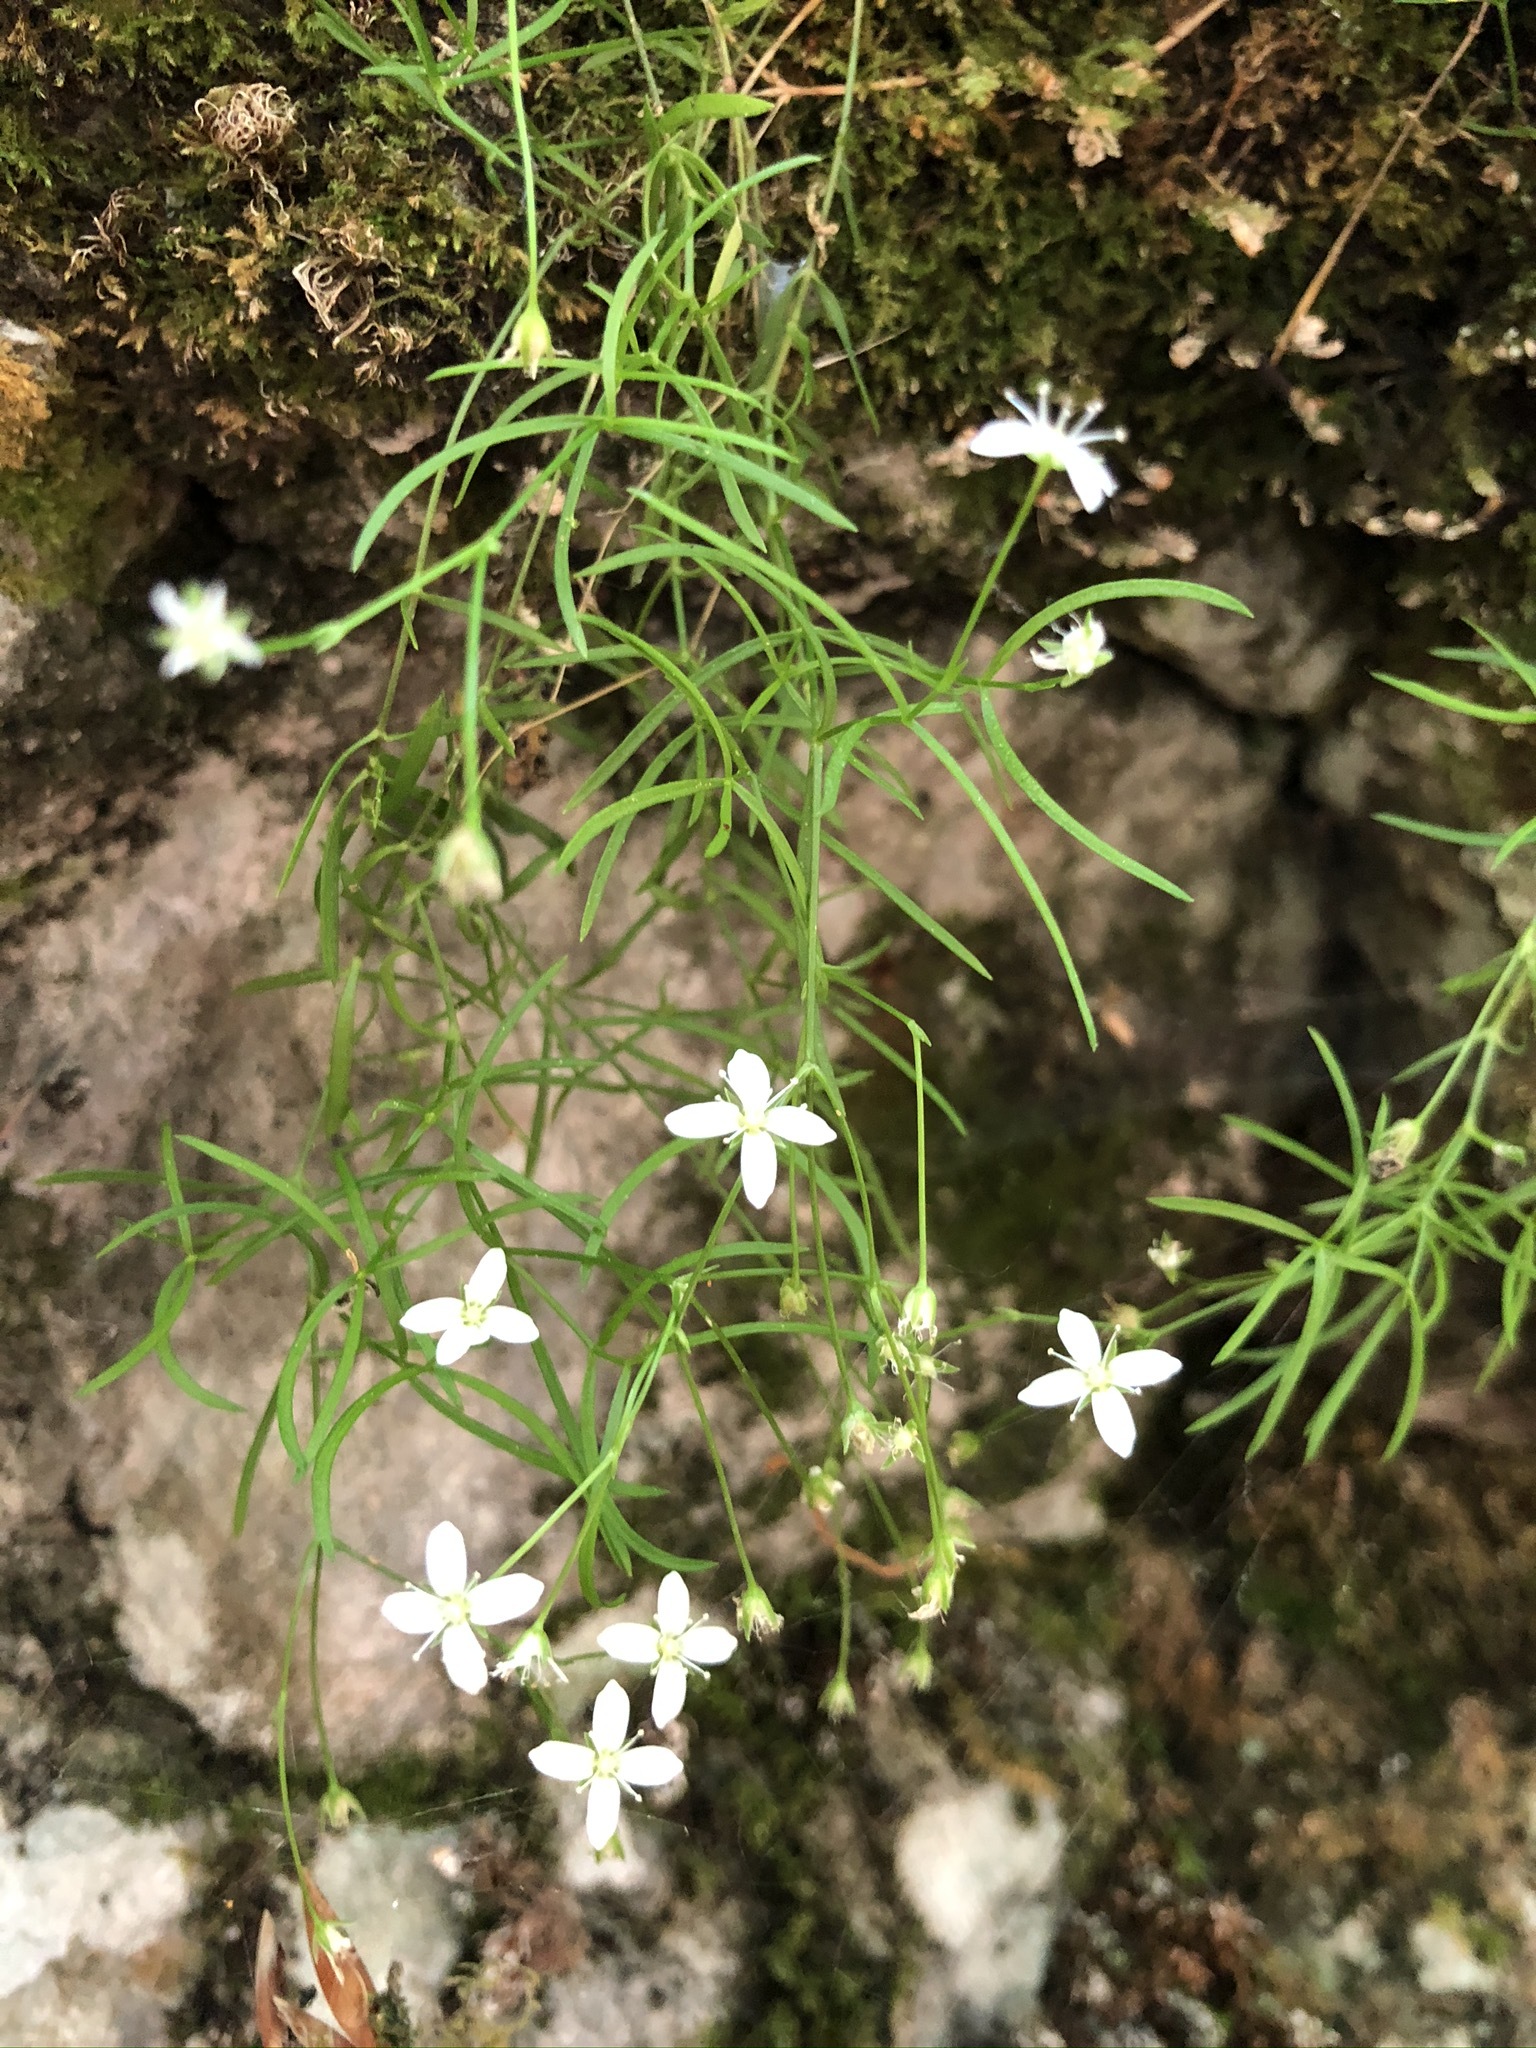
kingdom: Plantae
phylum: Tracheophyta
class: Magnoliopsida
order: Caryophyllales
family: Caryophyllaceae
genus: Moehringia
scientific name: Moehringia muscosa
